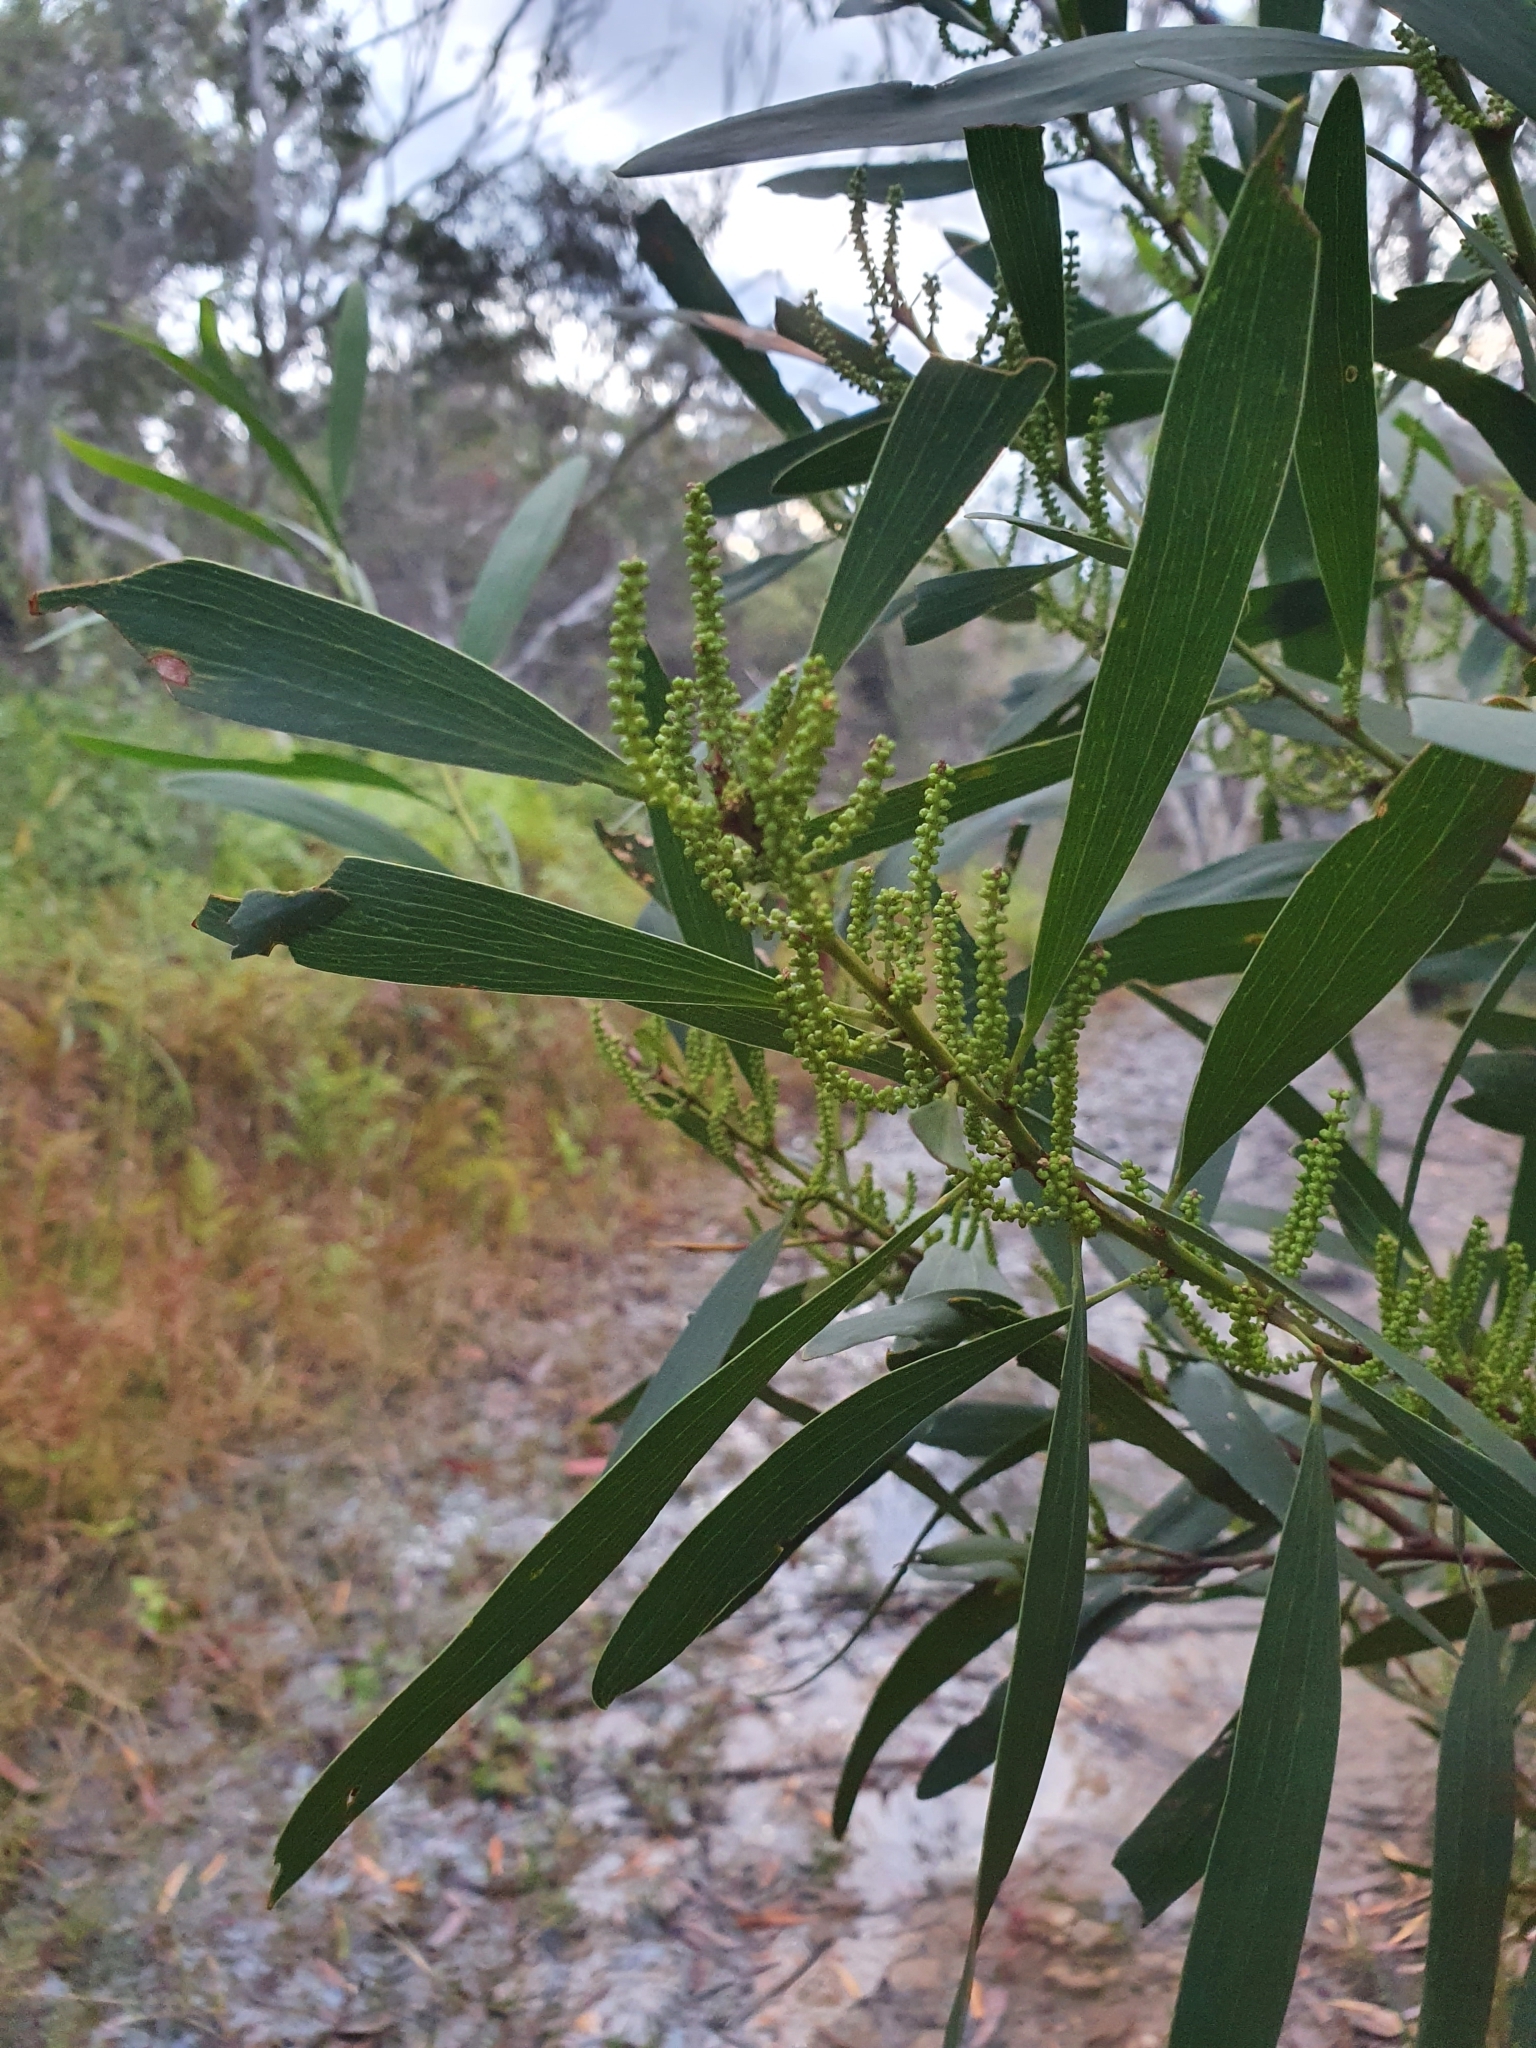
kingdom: Plantae
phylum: Tracheophyta
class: Magnoliopsida
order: Fabales
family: Fabaceae
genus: Acacia
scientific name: Acacia longifolia
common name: Sydney golden wattle
